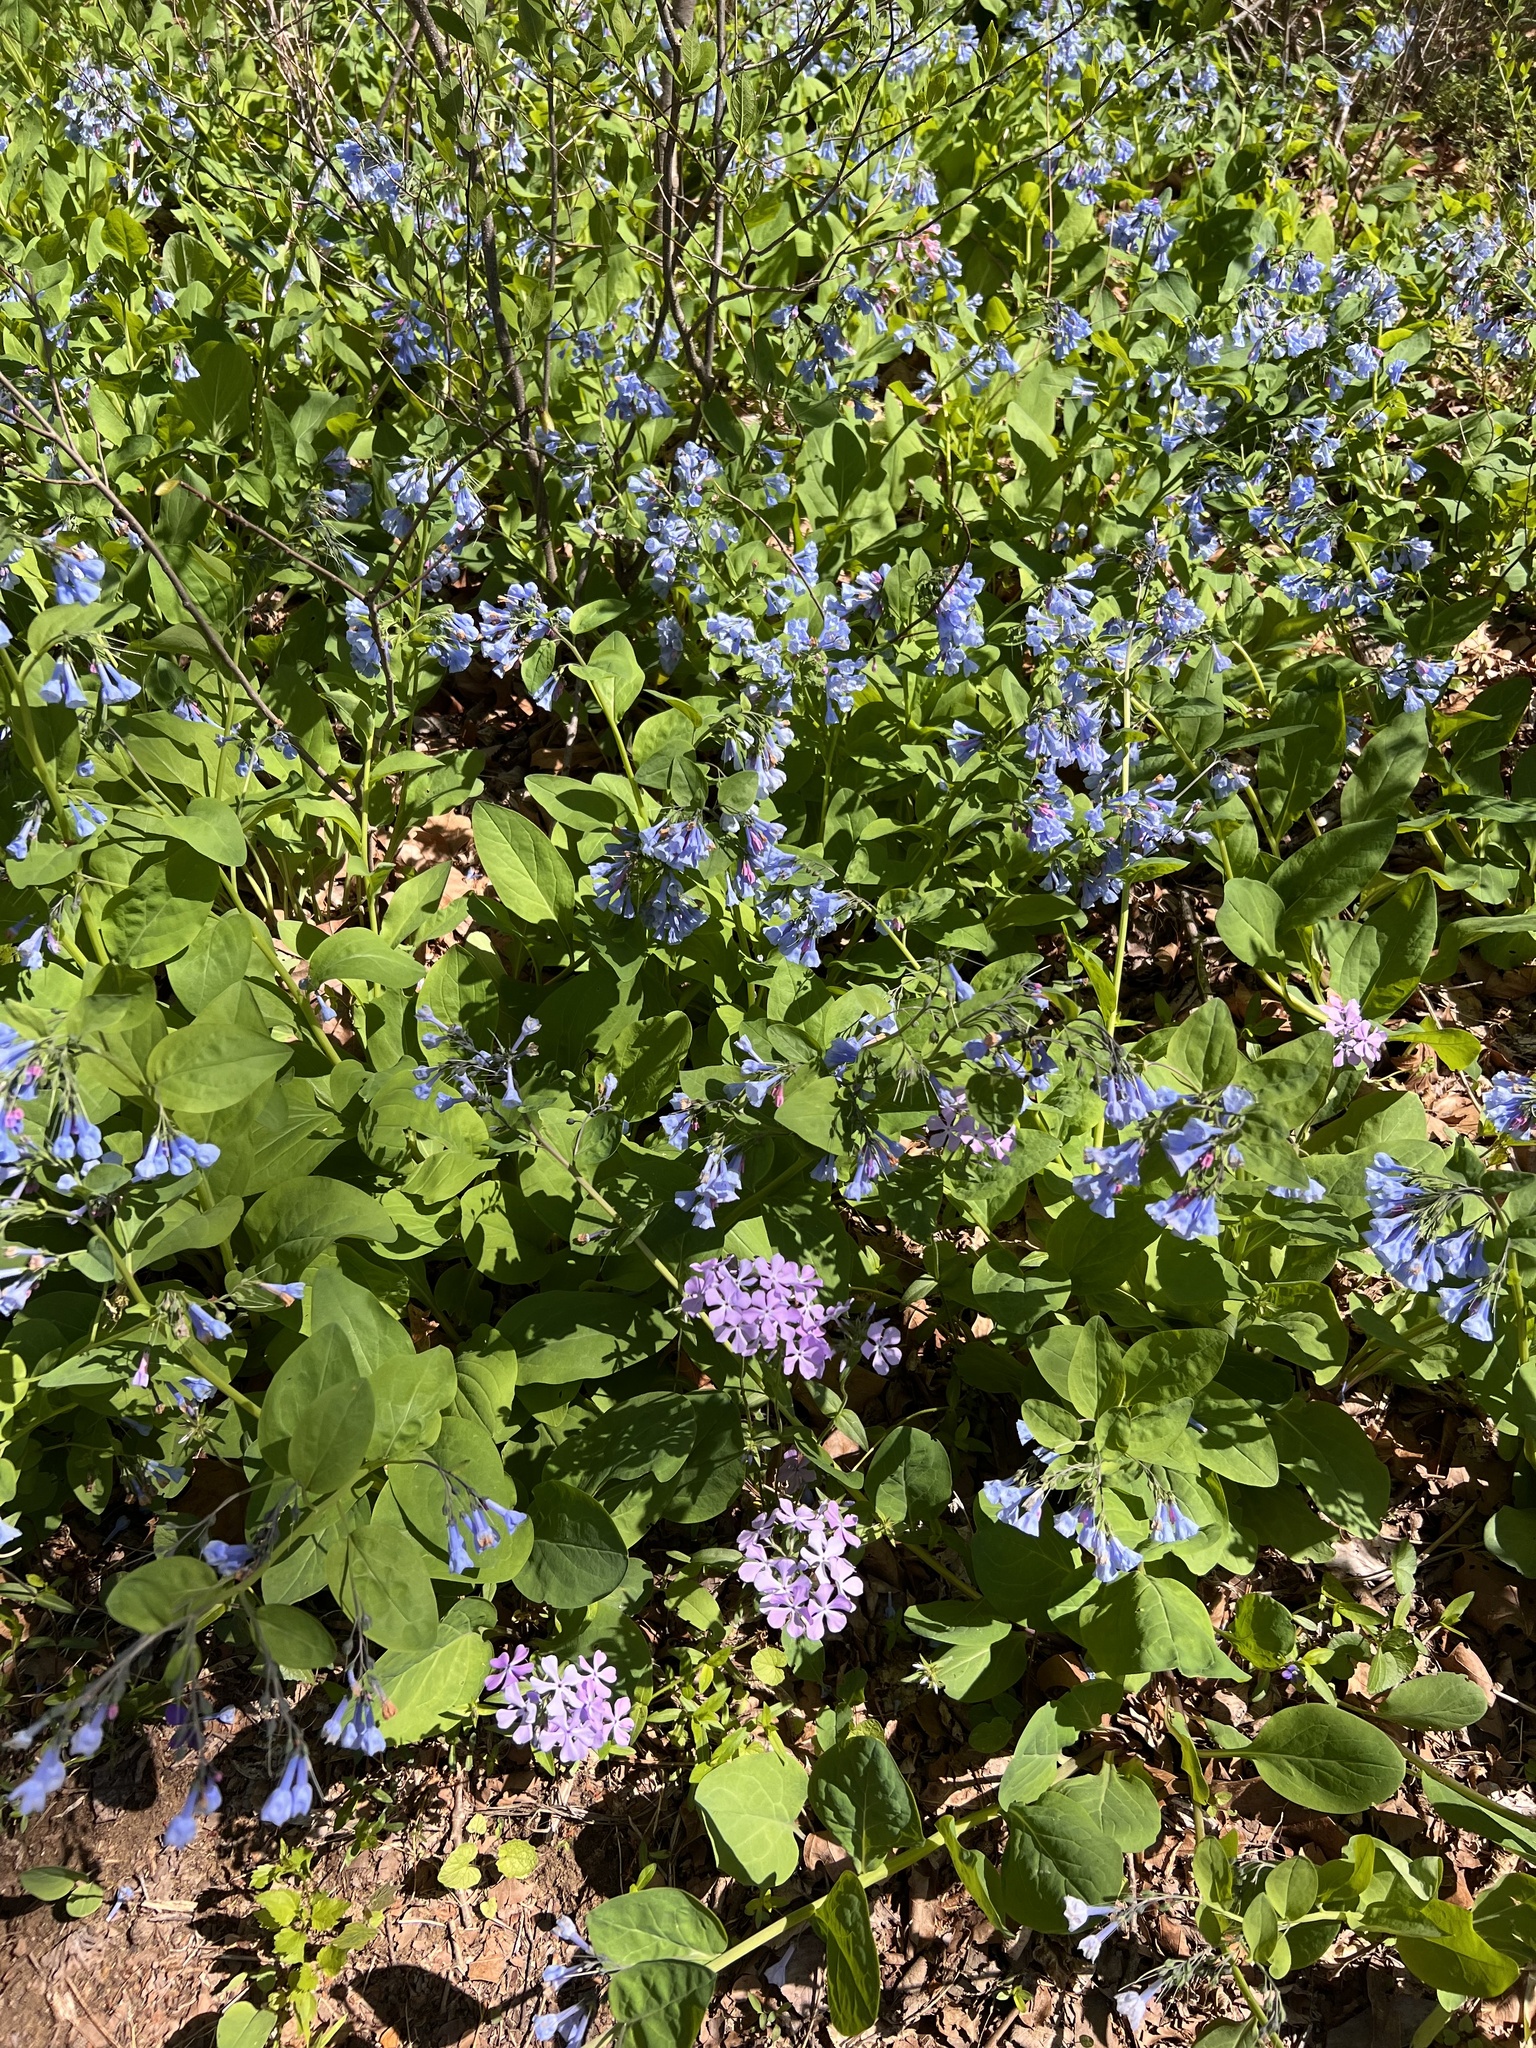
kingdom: Plantae
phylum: Tracheophyta
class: Magnoliopsida
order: Boraginales
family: Boraginaceae
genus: Mertensia
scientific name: Mertensia virginica
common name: Virginia bluebells
